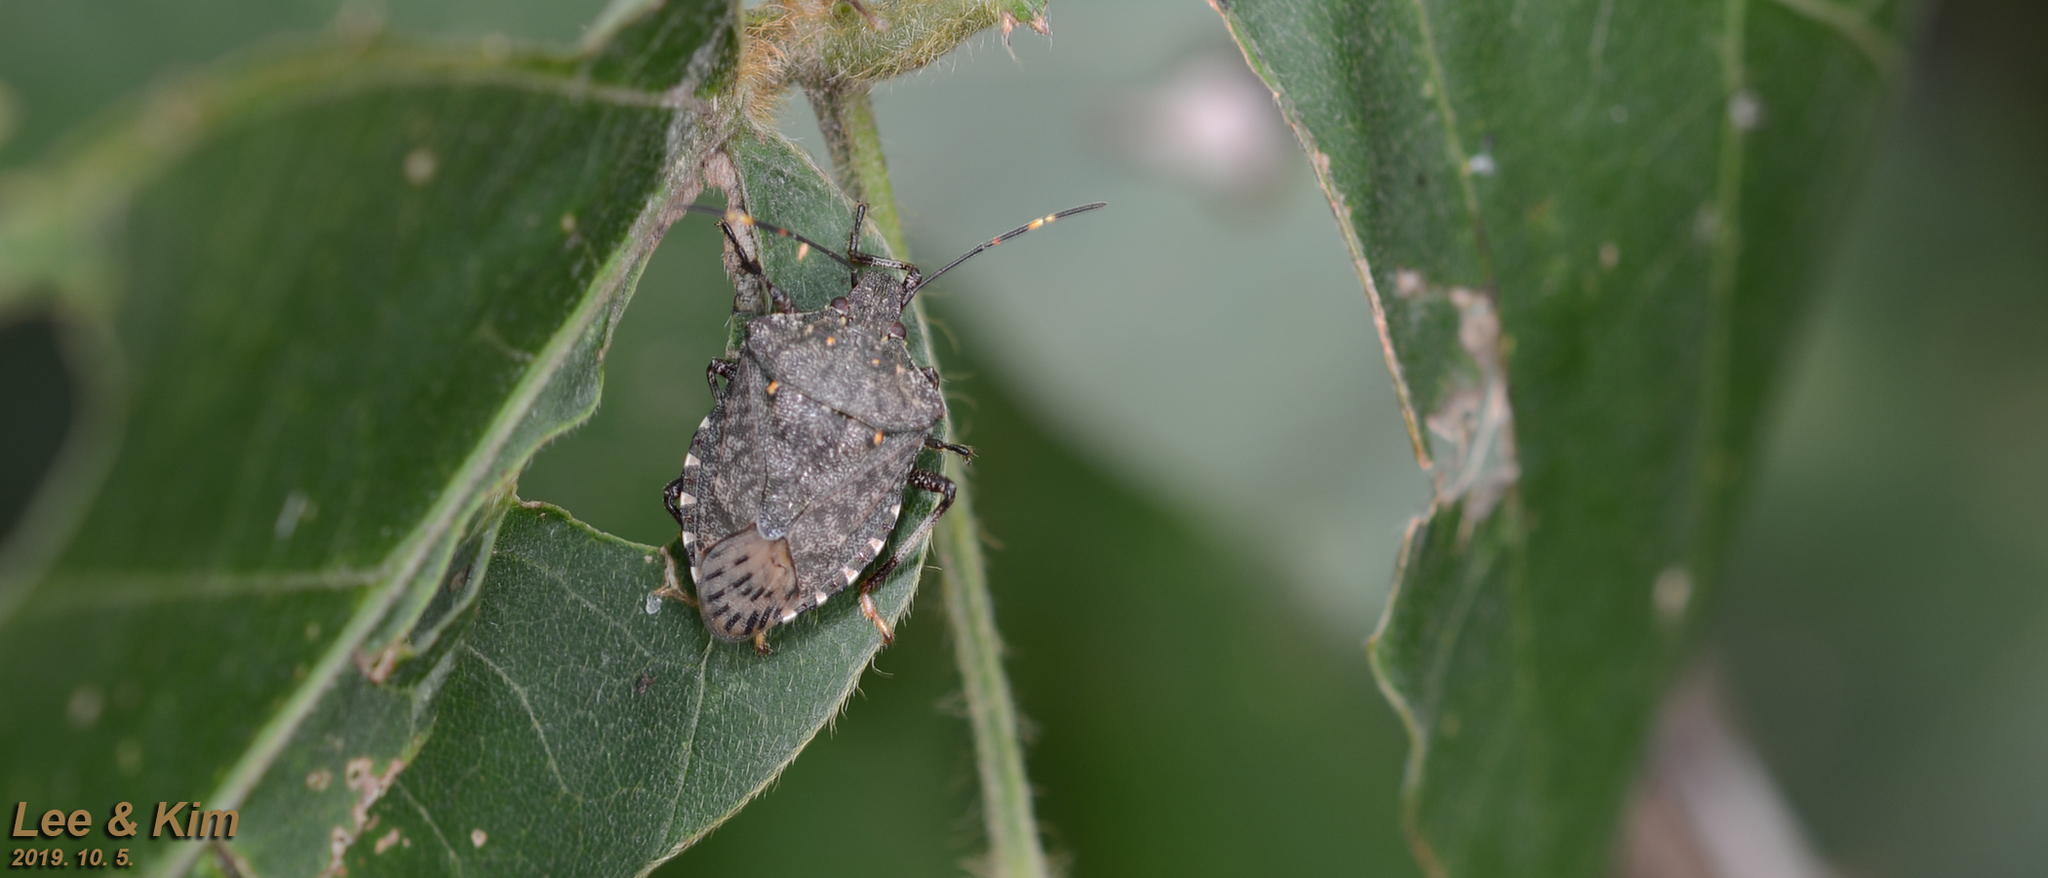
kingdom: Animalia
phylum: Arthropoda
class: Insecta
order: Hemiptera
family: Pentatomidae
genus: Halyomorpha
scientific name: Halyomorpha halys
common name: Brown marmorated stink bug
